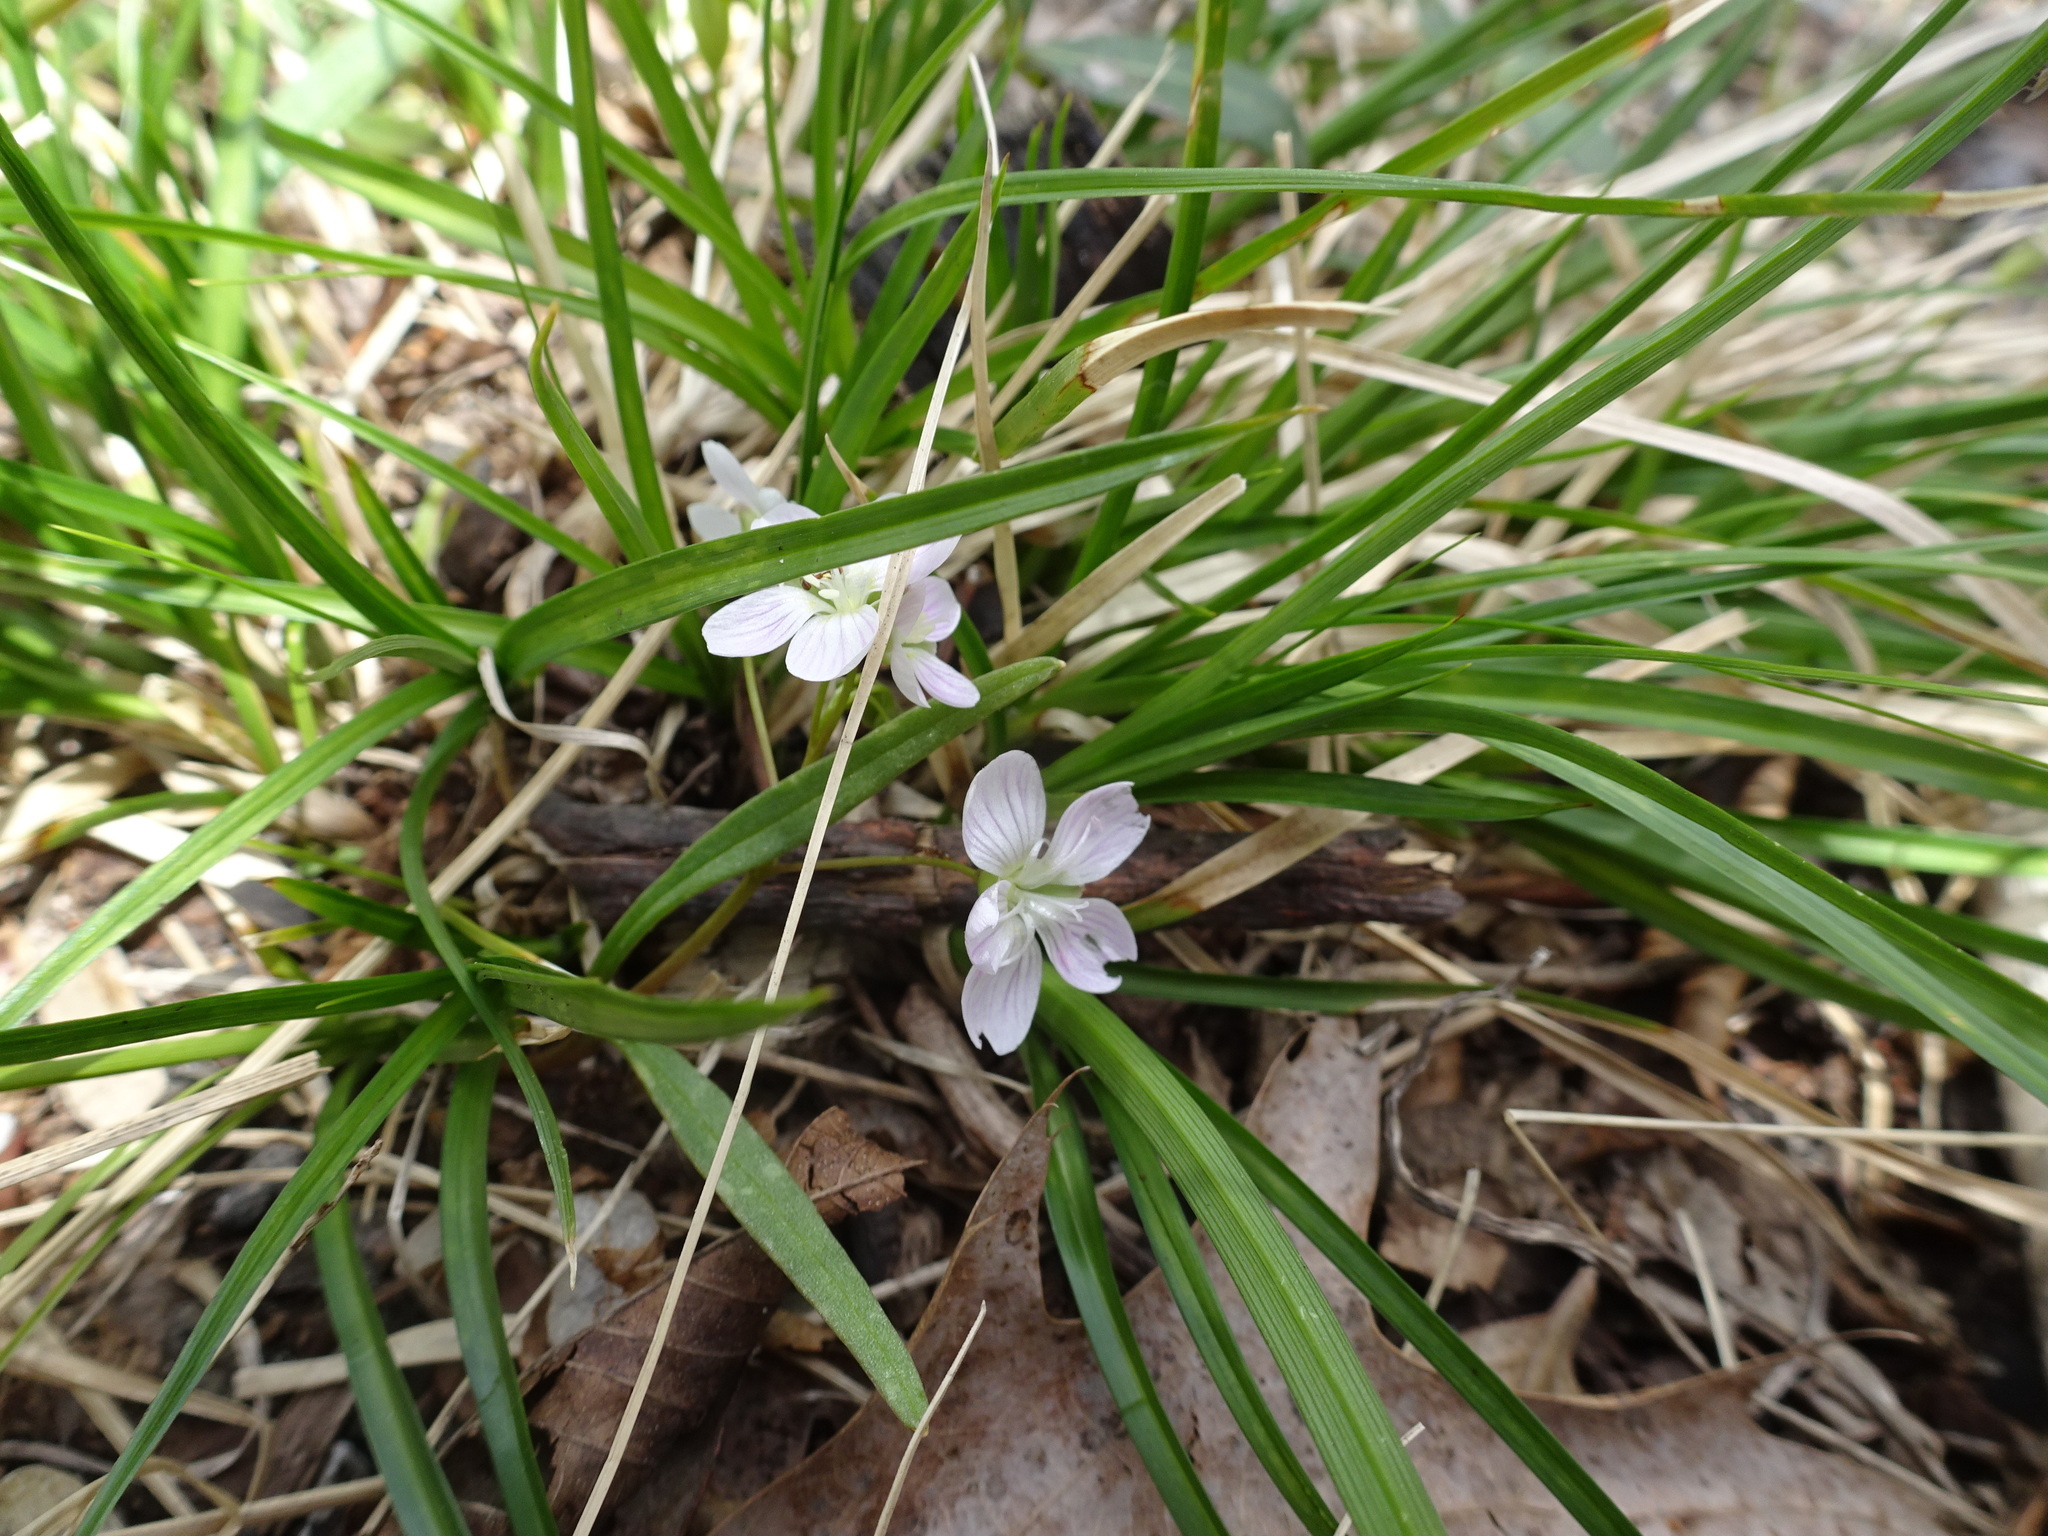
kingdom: Plantae
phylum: Tracheophyta
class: Magnoliopsida
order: Caryophyllales
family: Montiaceae
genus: Claytonia
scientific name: Claytonia virginica
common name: Virginia springbeauty
